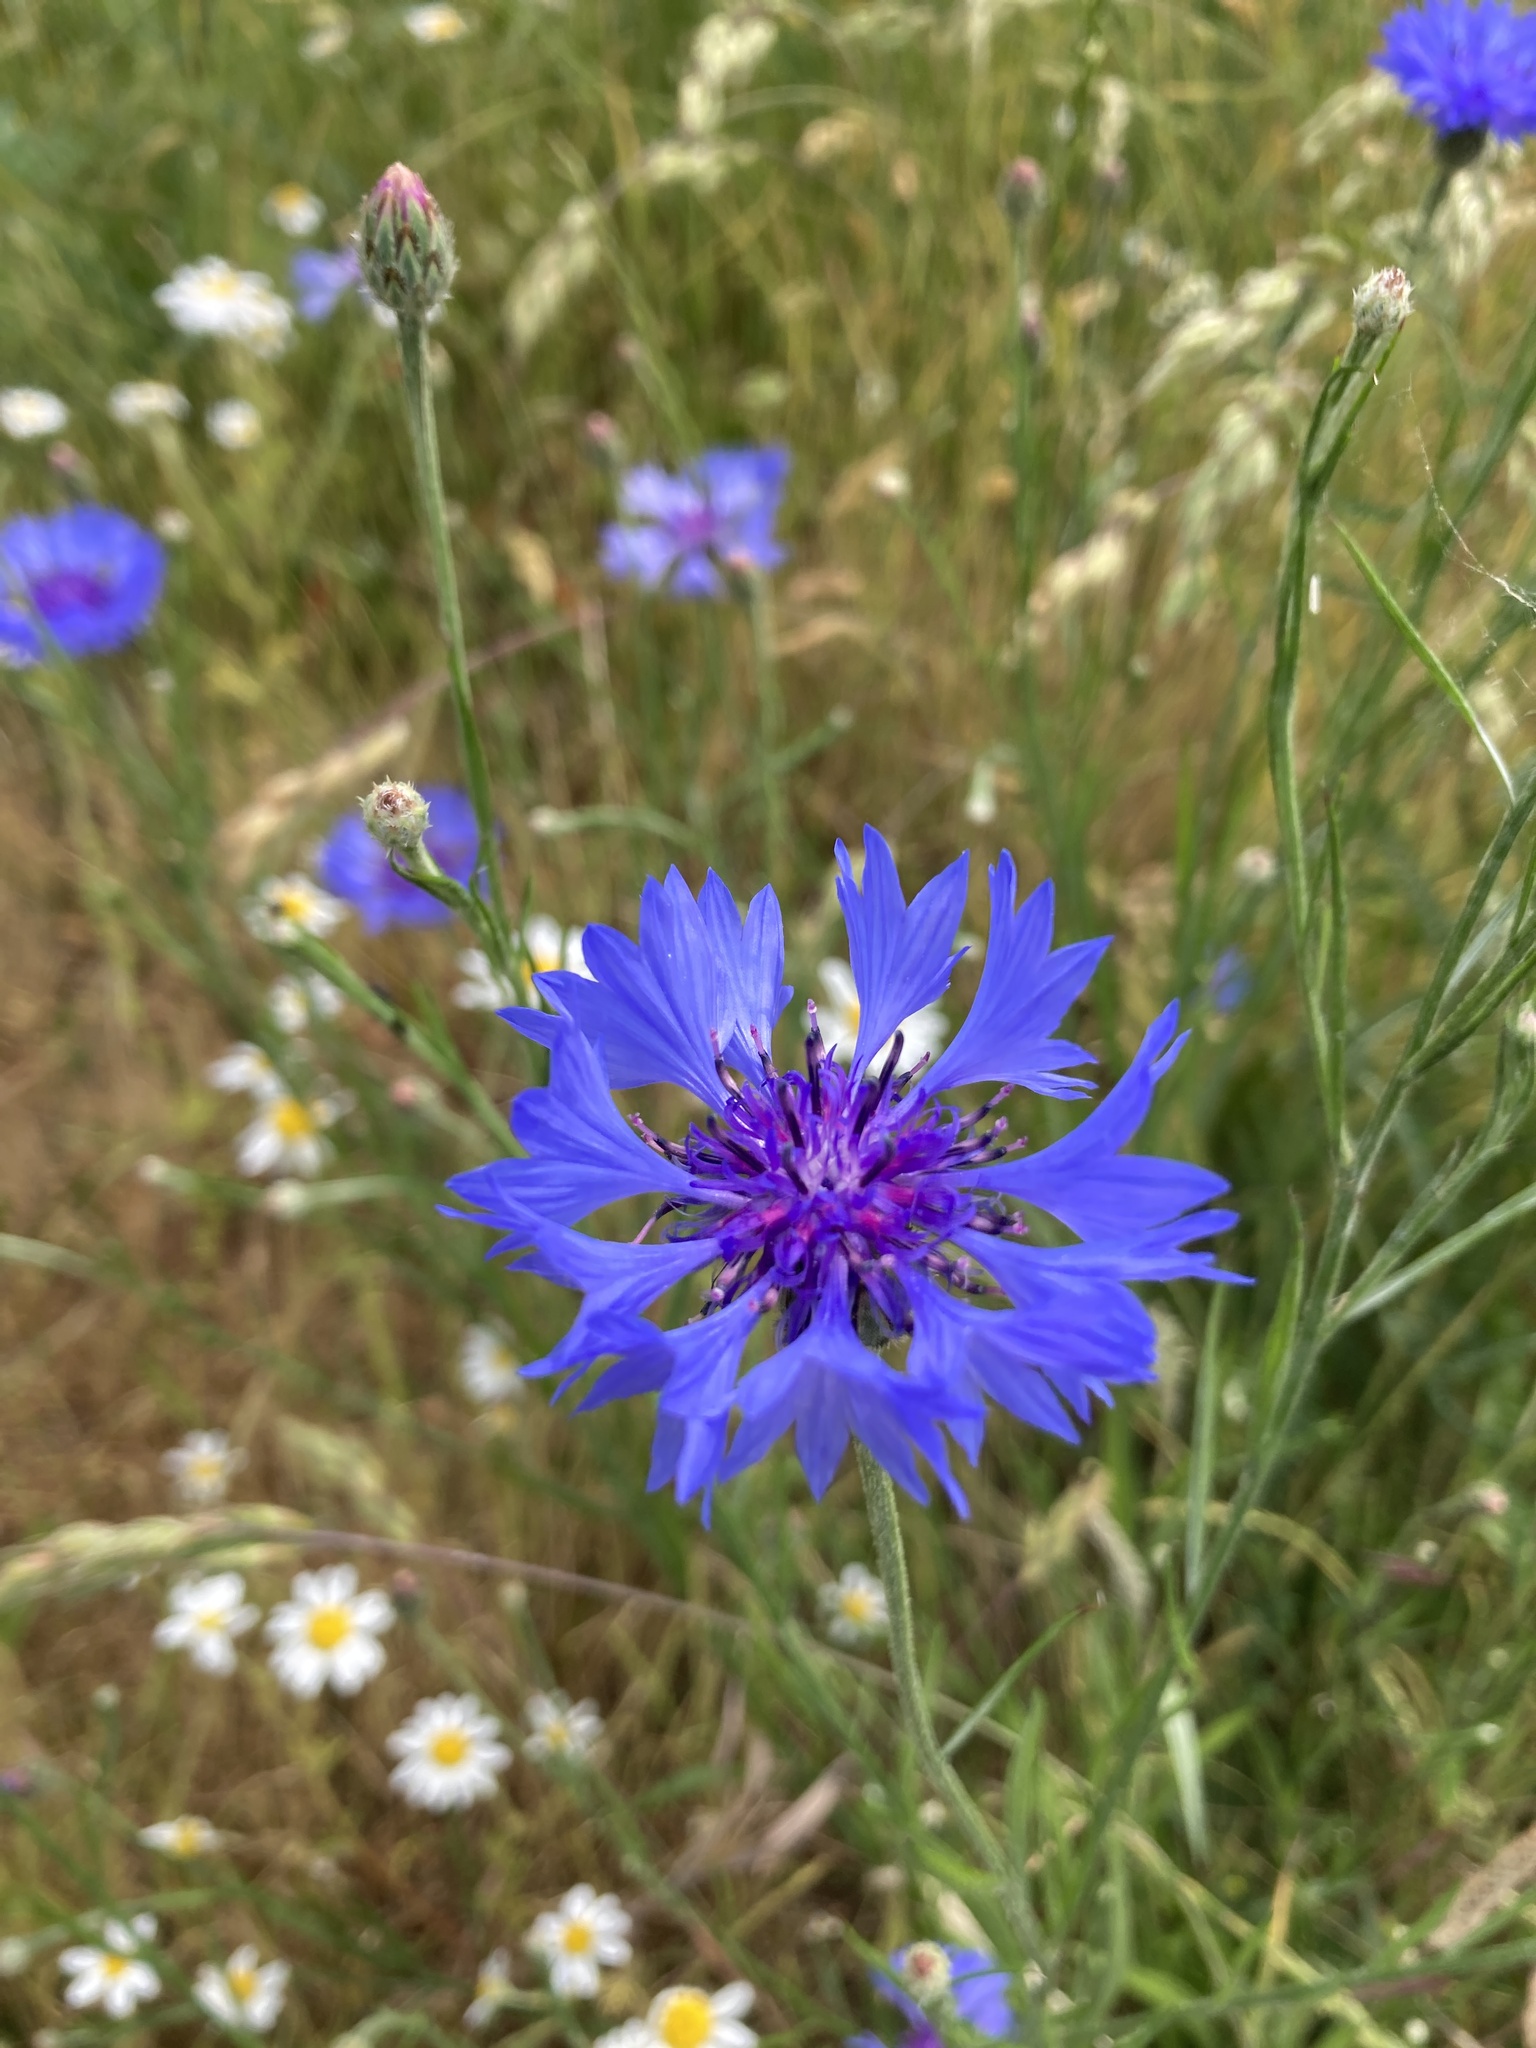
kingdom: Plantae
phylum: Tracheophyta
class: Magnoliopsida
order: Asterales
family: Asteraceae
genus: Centaurea
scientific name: Centaurea cyanus
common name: Cornflower
